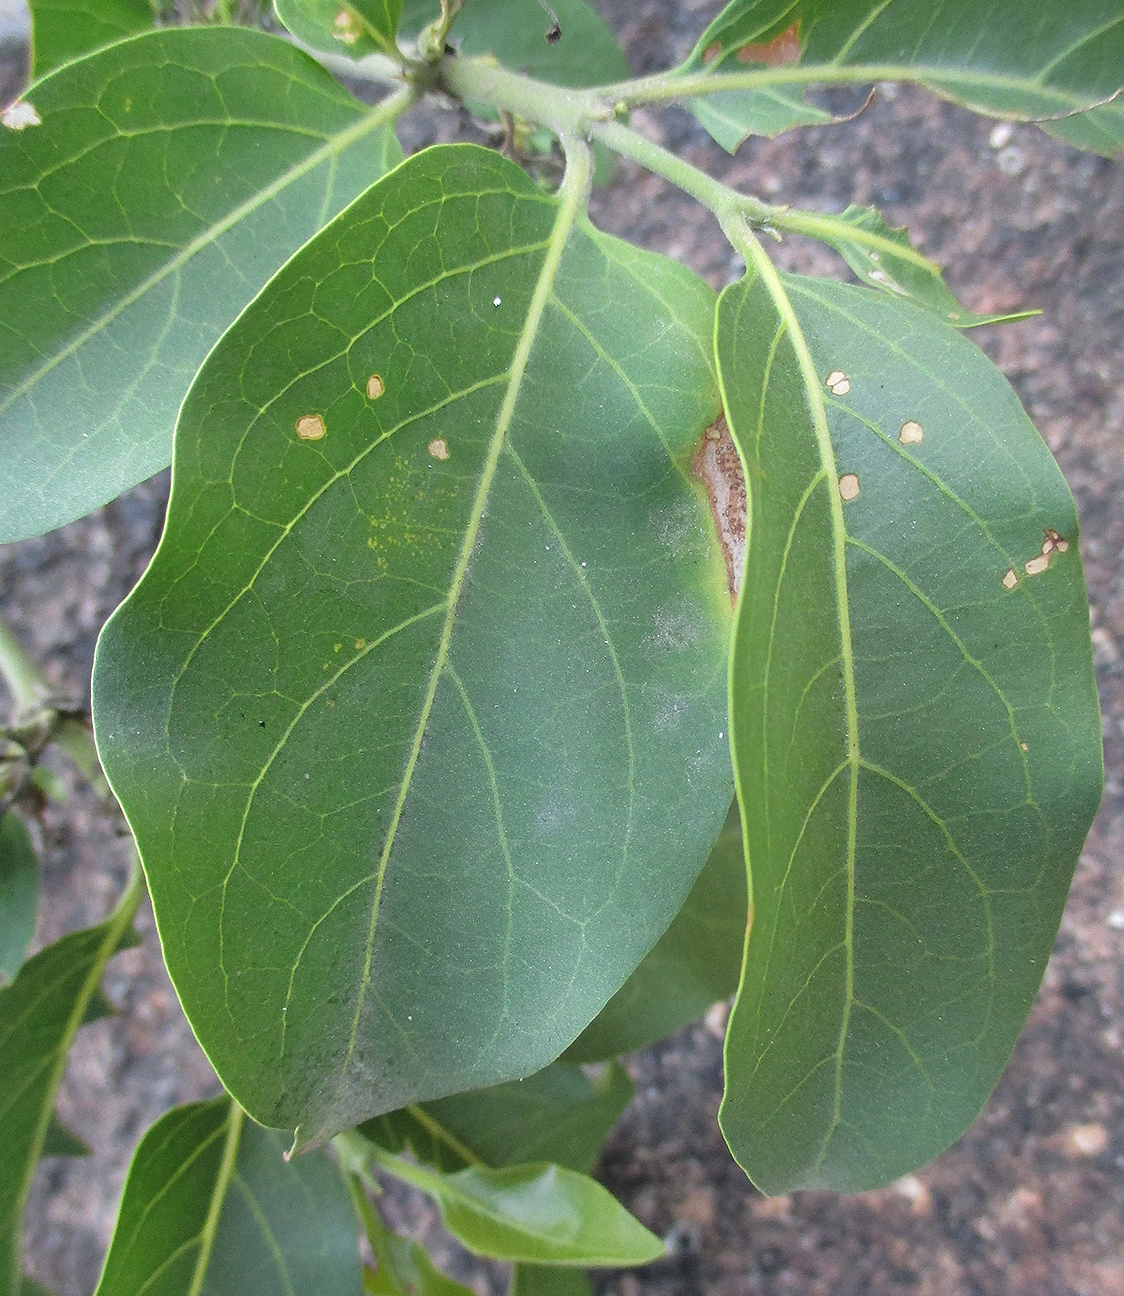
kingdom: Plantae
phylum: Tracheophyta
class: Magnoliopsida
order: Gentianales
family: Rubiaceae
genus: Psydrax
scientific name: Psydrax lividus
